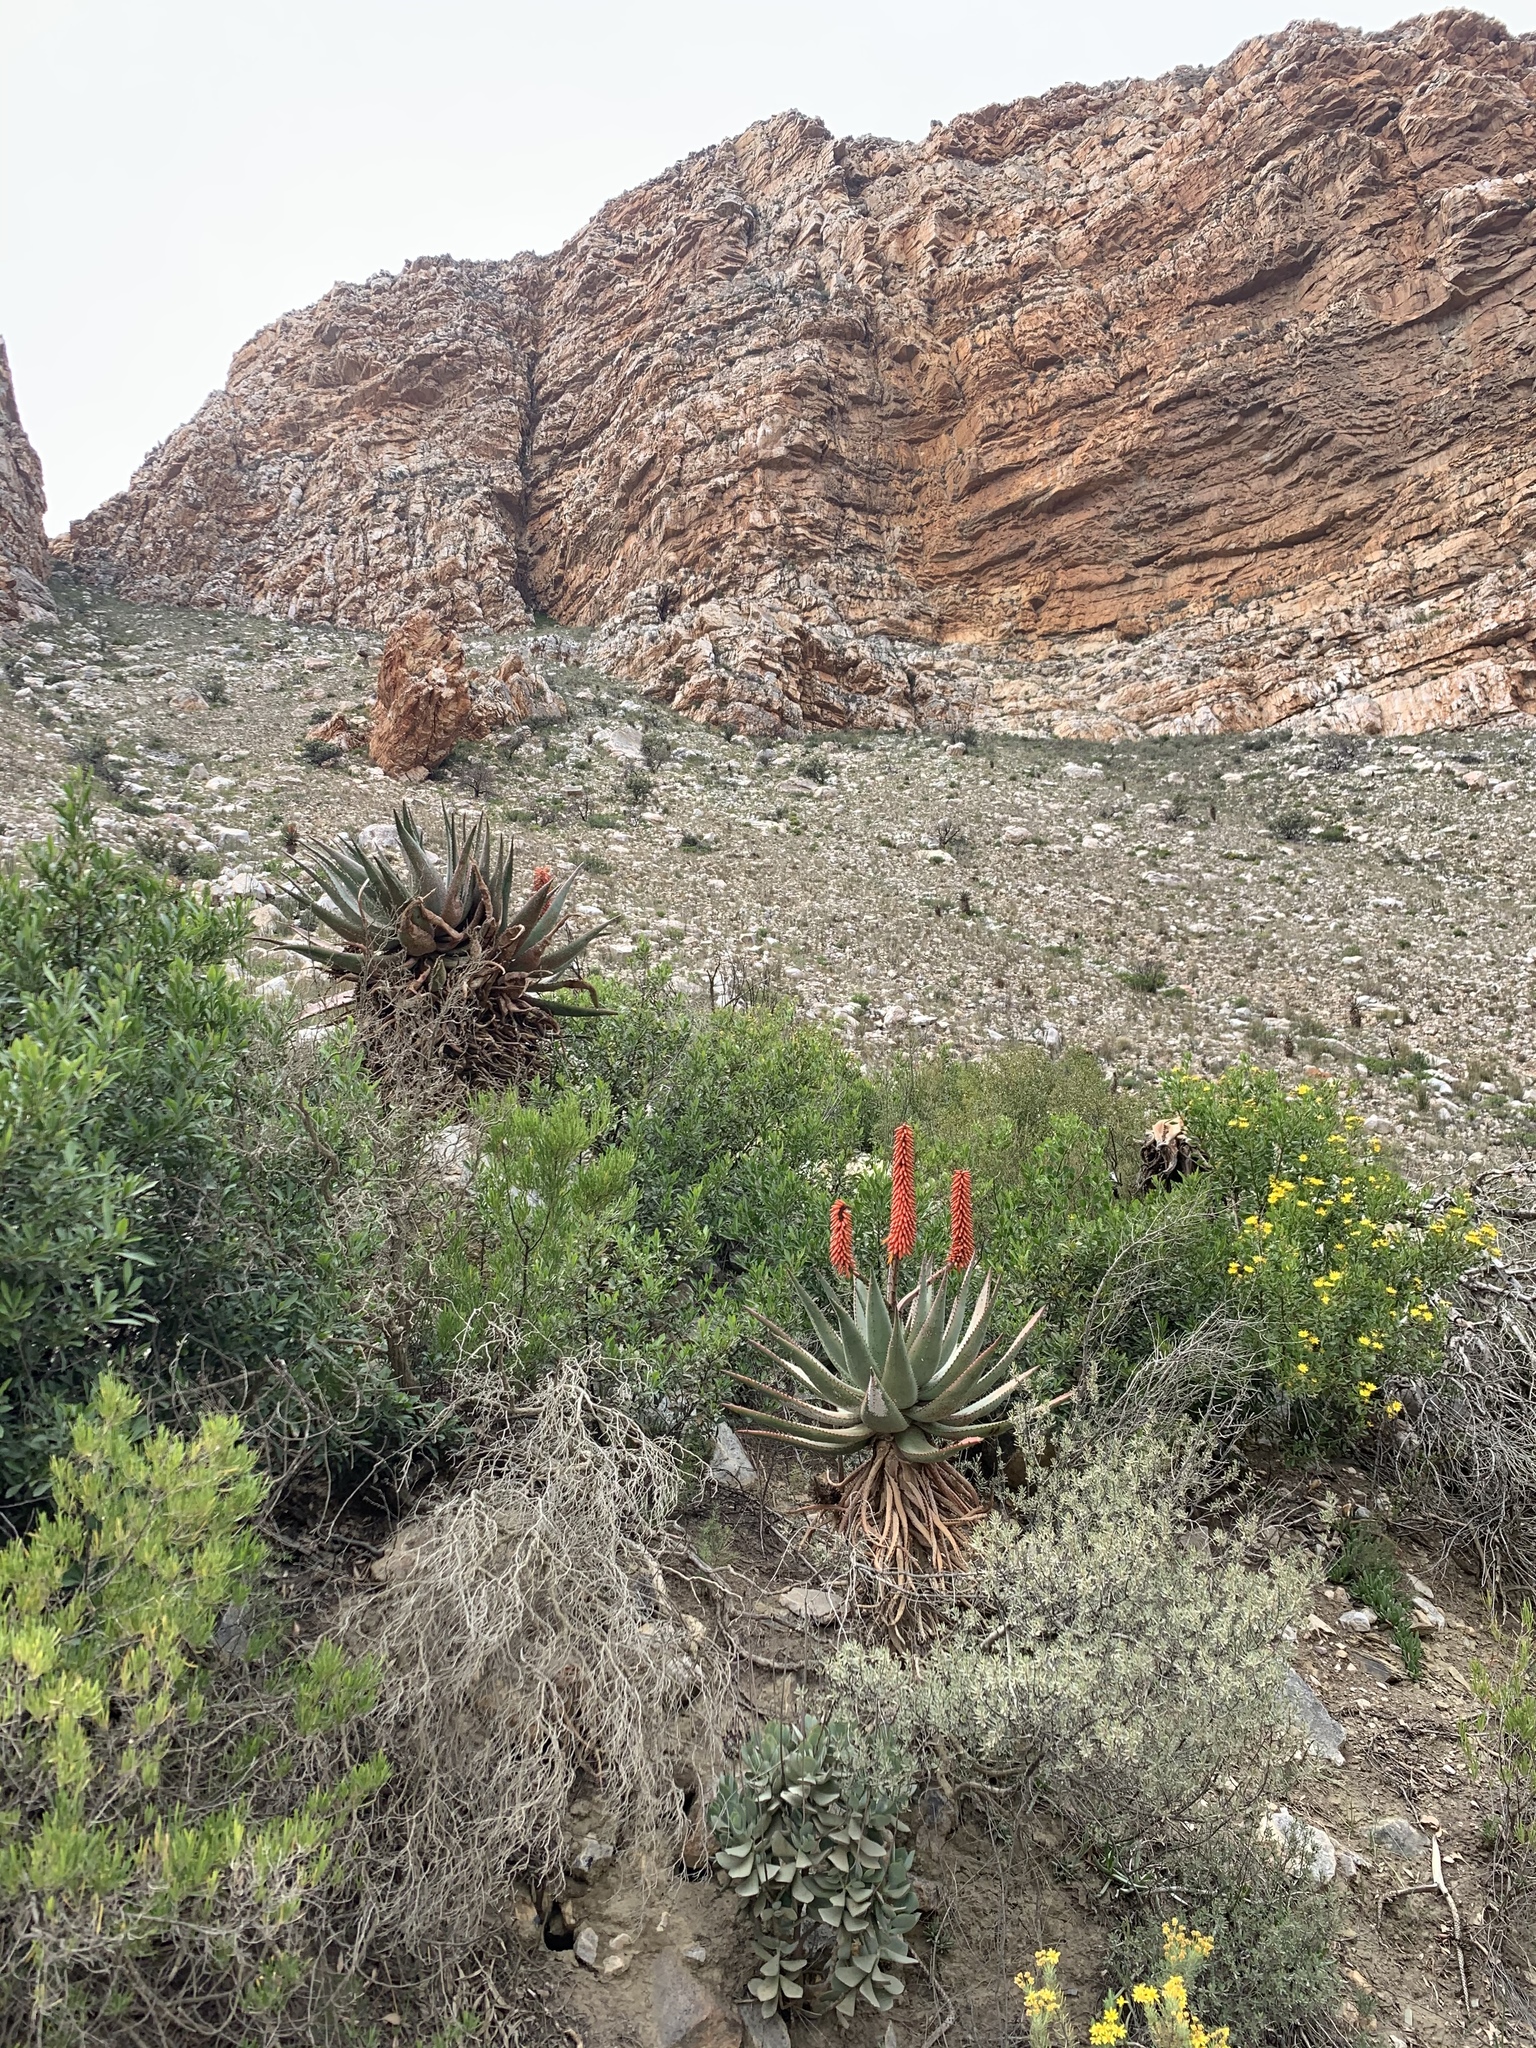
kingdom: Plantae
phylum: Tracheophyta
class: Liliopsida
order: Asparagales
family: Asphodelaceae
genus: Aloe
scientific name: Aloe ferox
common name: Bitter aloe
